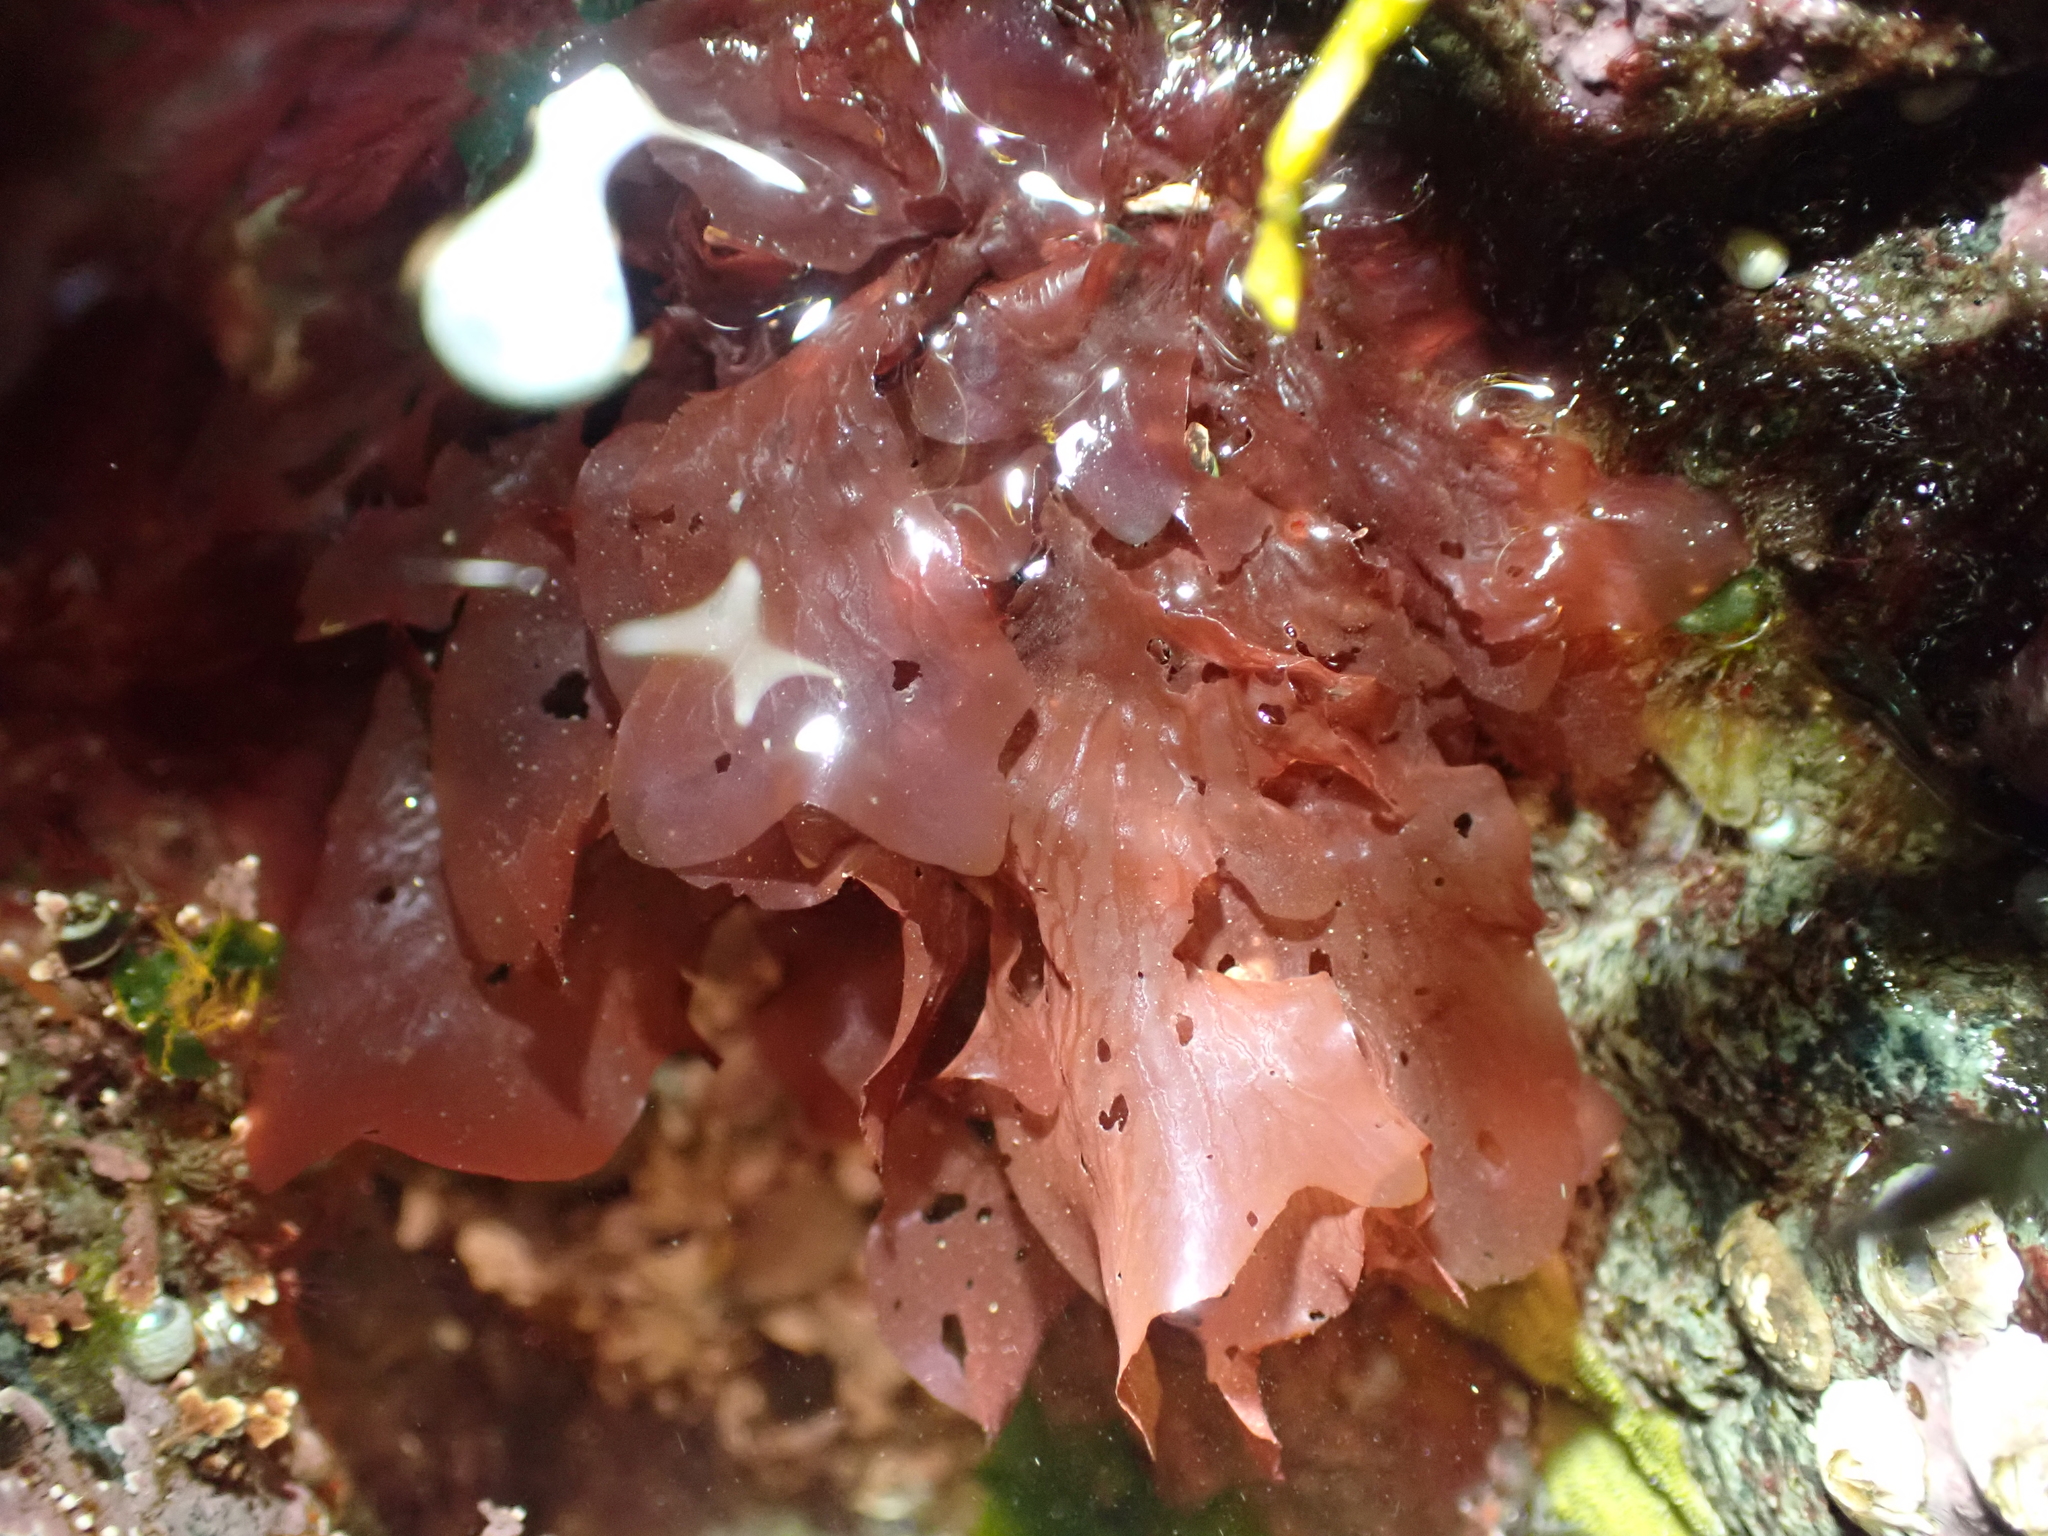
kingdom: Plantae
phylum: Rhodophyta
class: Florideophyceae
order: Ceramiales
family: Delesseriaceae
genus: Polyneura
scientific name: Polyneura latissima
